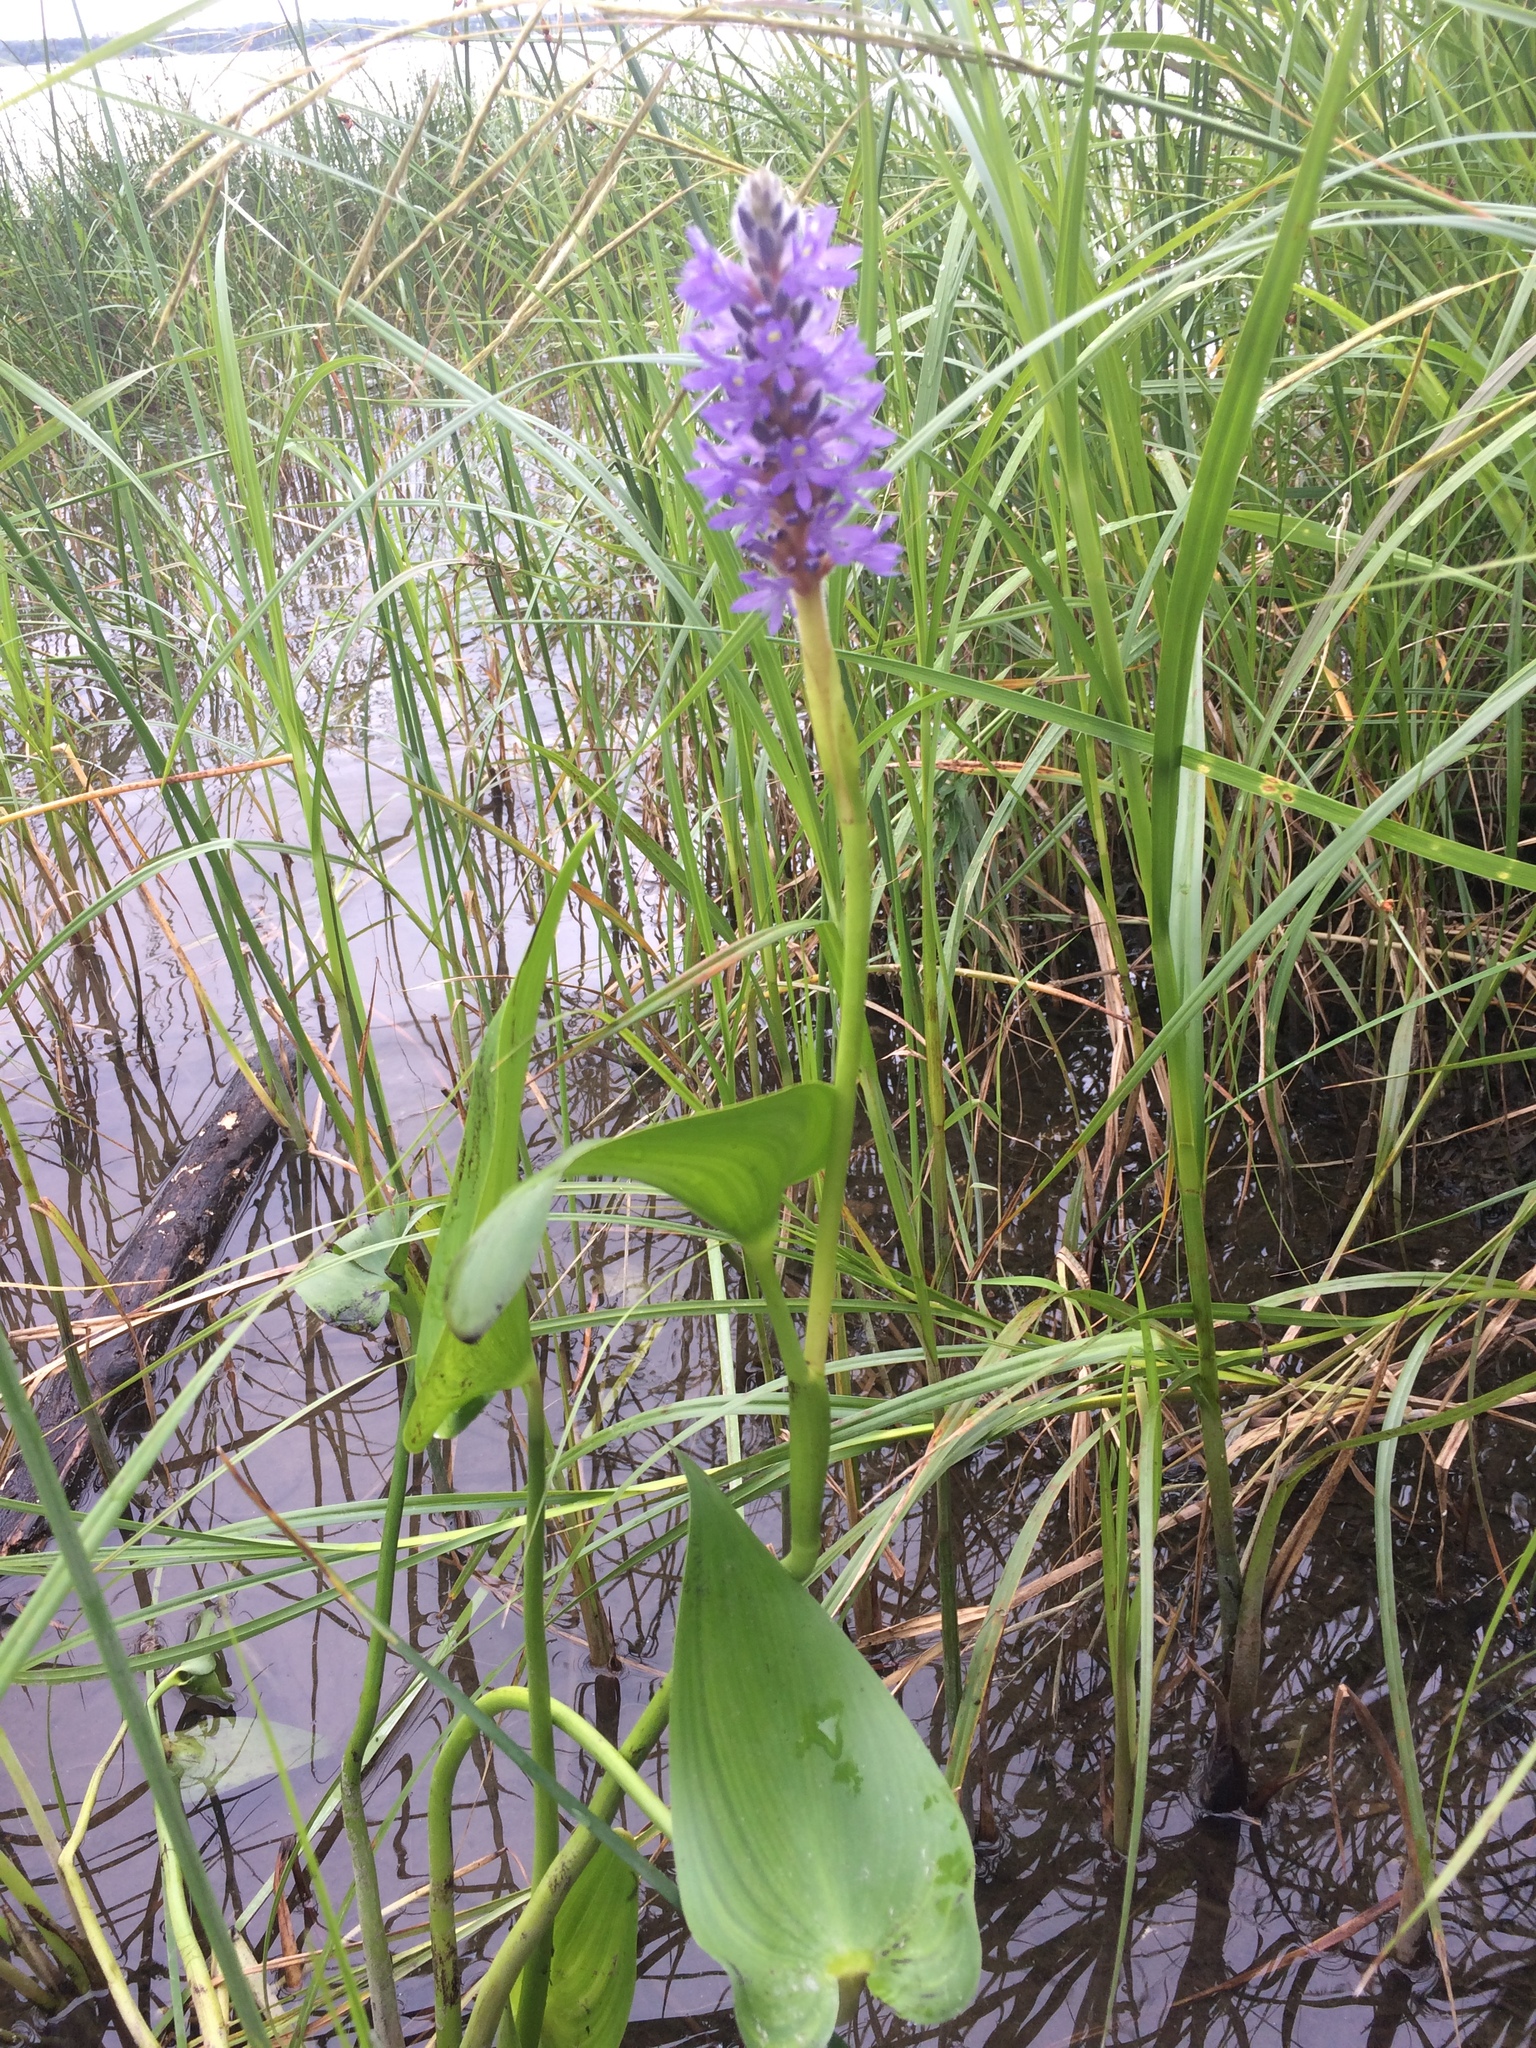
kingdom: Plantae
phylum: Tracheophyta
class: Liliopsida
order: Commelinales
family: Pontederiaceae
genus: Pontederia
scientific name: Pontederia cordata
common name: Pickerelweed
